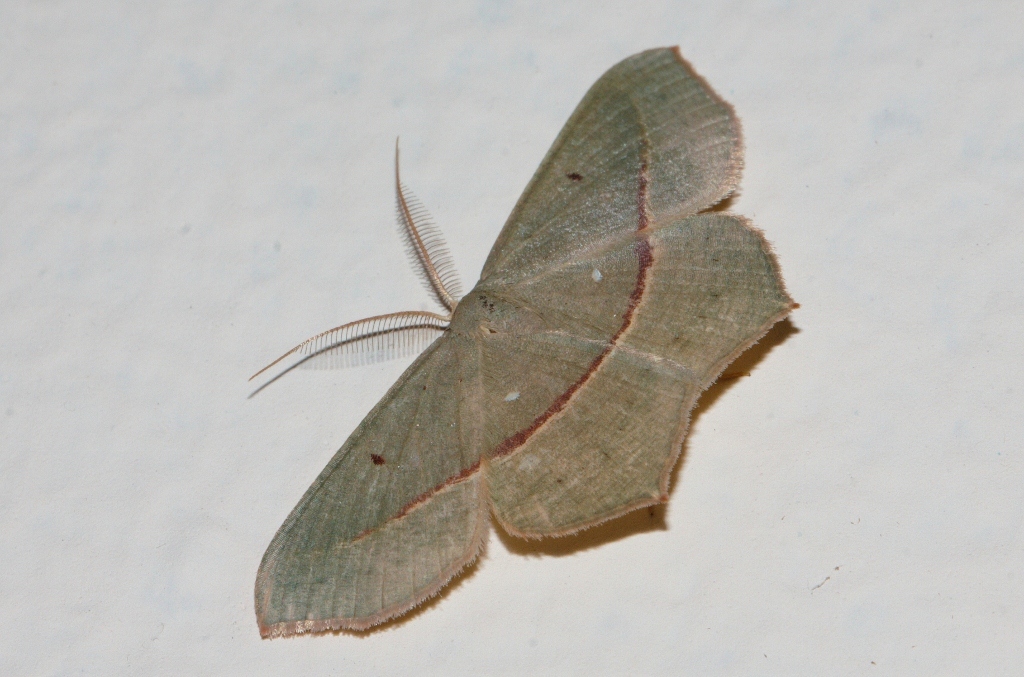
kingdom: Animalia
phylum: Arthropoda
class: Insecta
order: Lepidoptera
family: Geometridae
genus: Traminda
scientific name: Traminda vividaria
